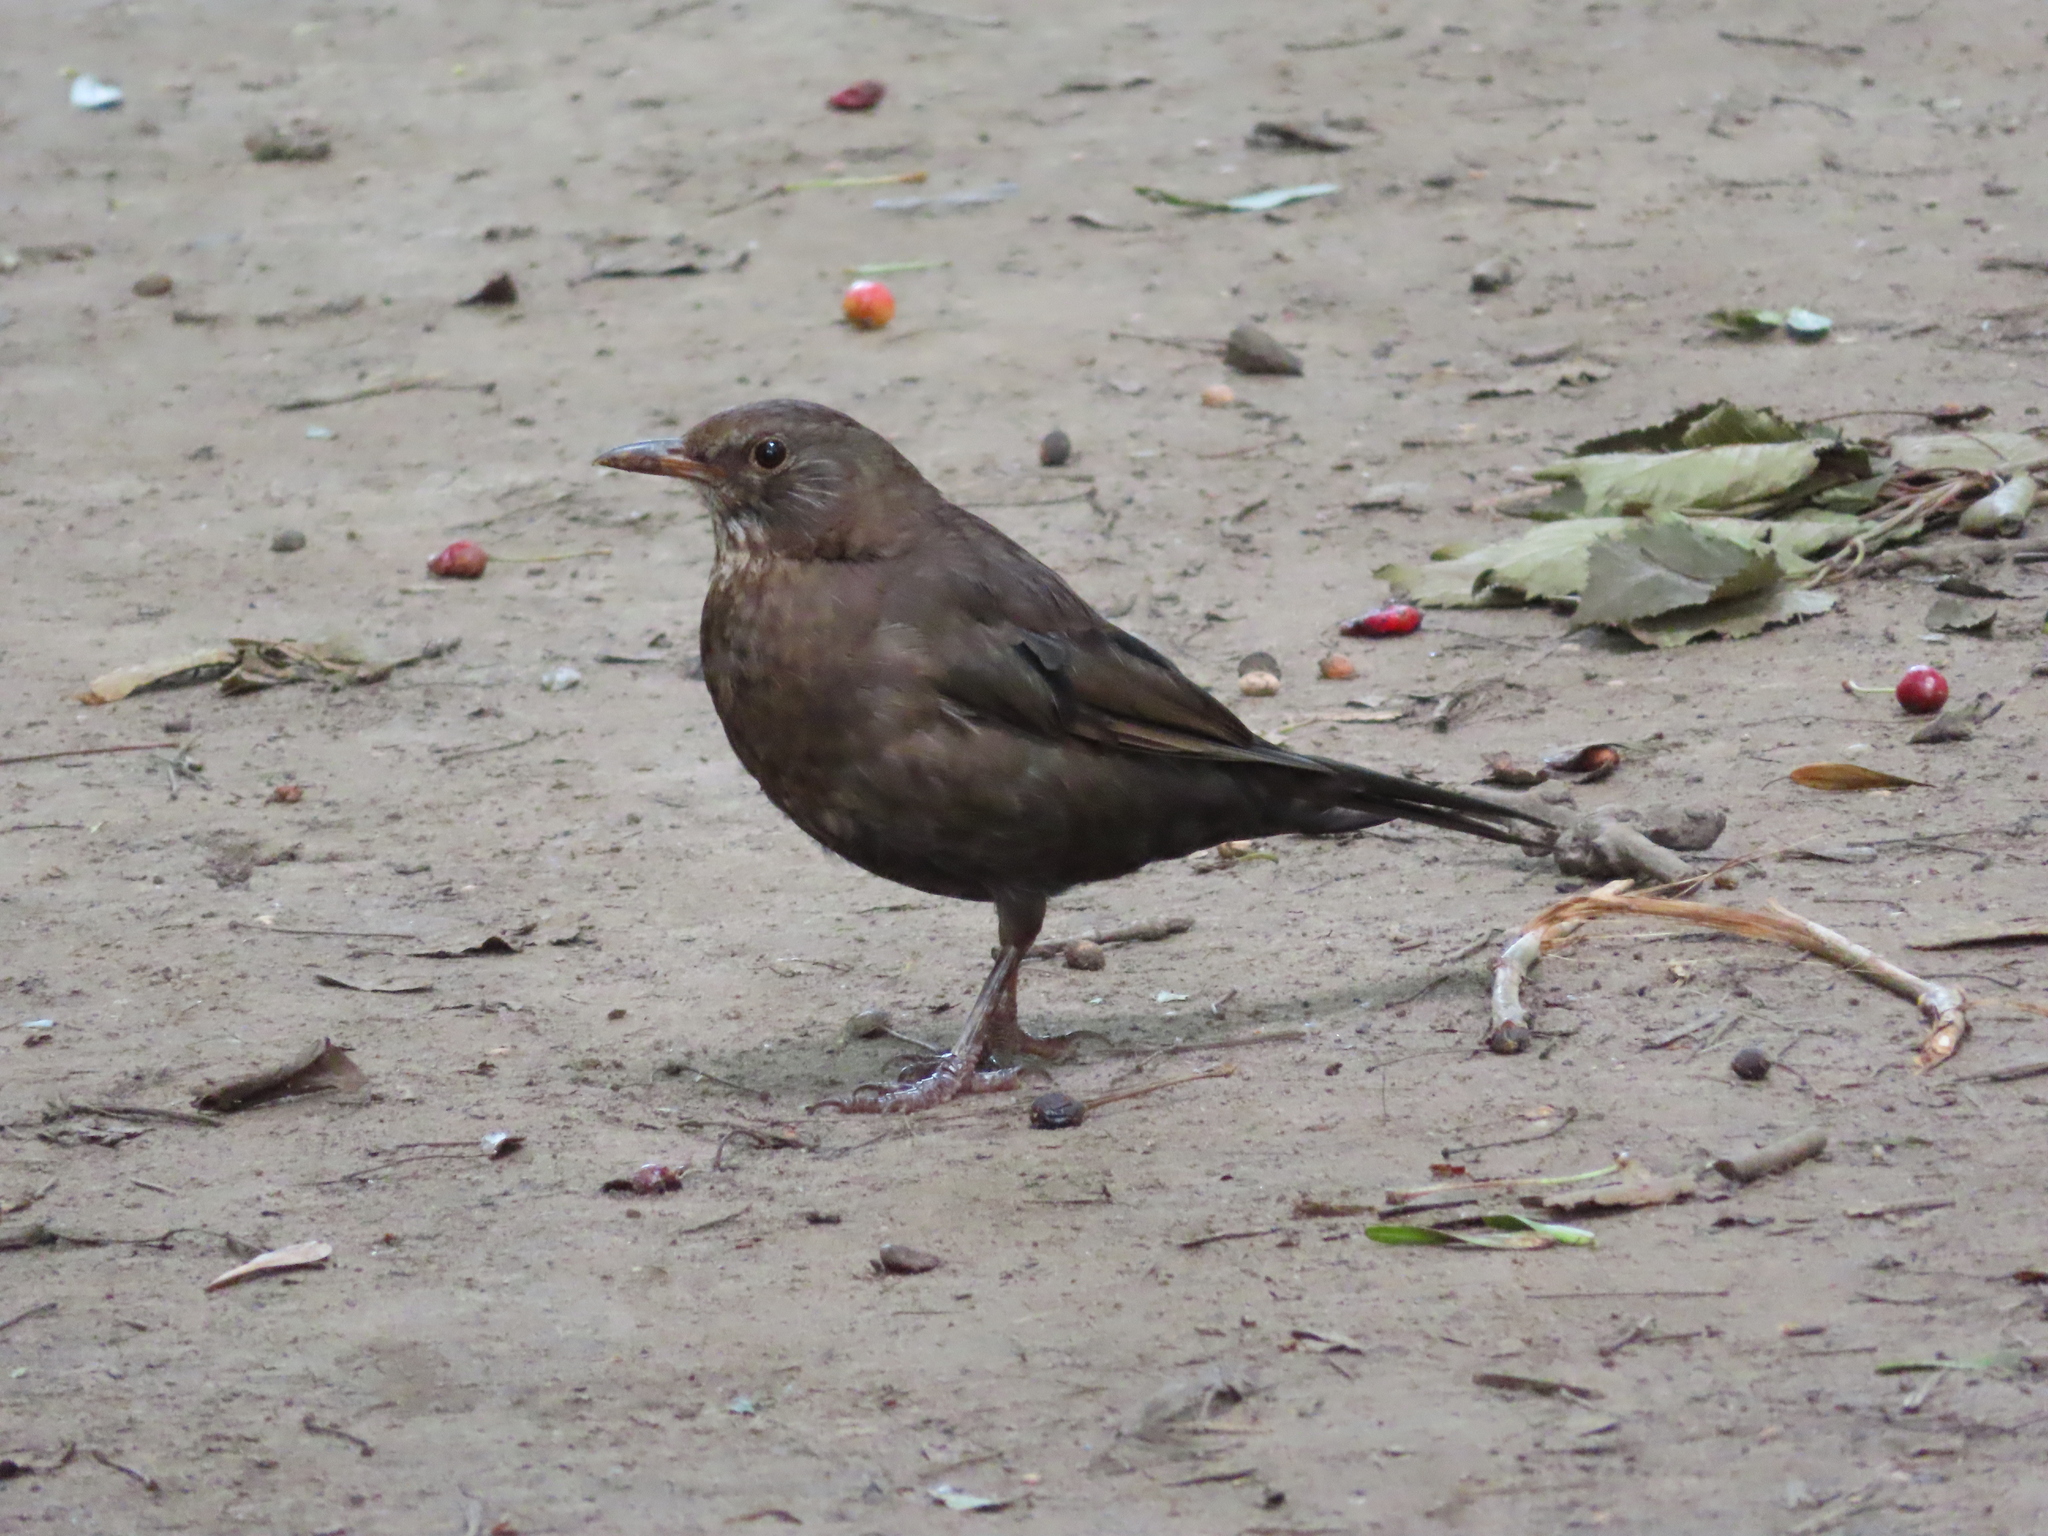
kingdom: Animalia
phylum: Chordata
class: Aves
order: Passeriformes
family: Turdidae
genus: Turdus
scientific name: Turdus merula
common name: Common blackbird
